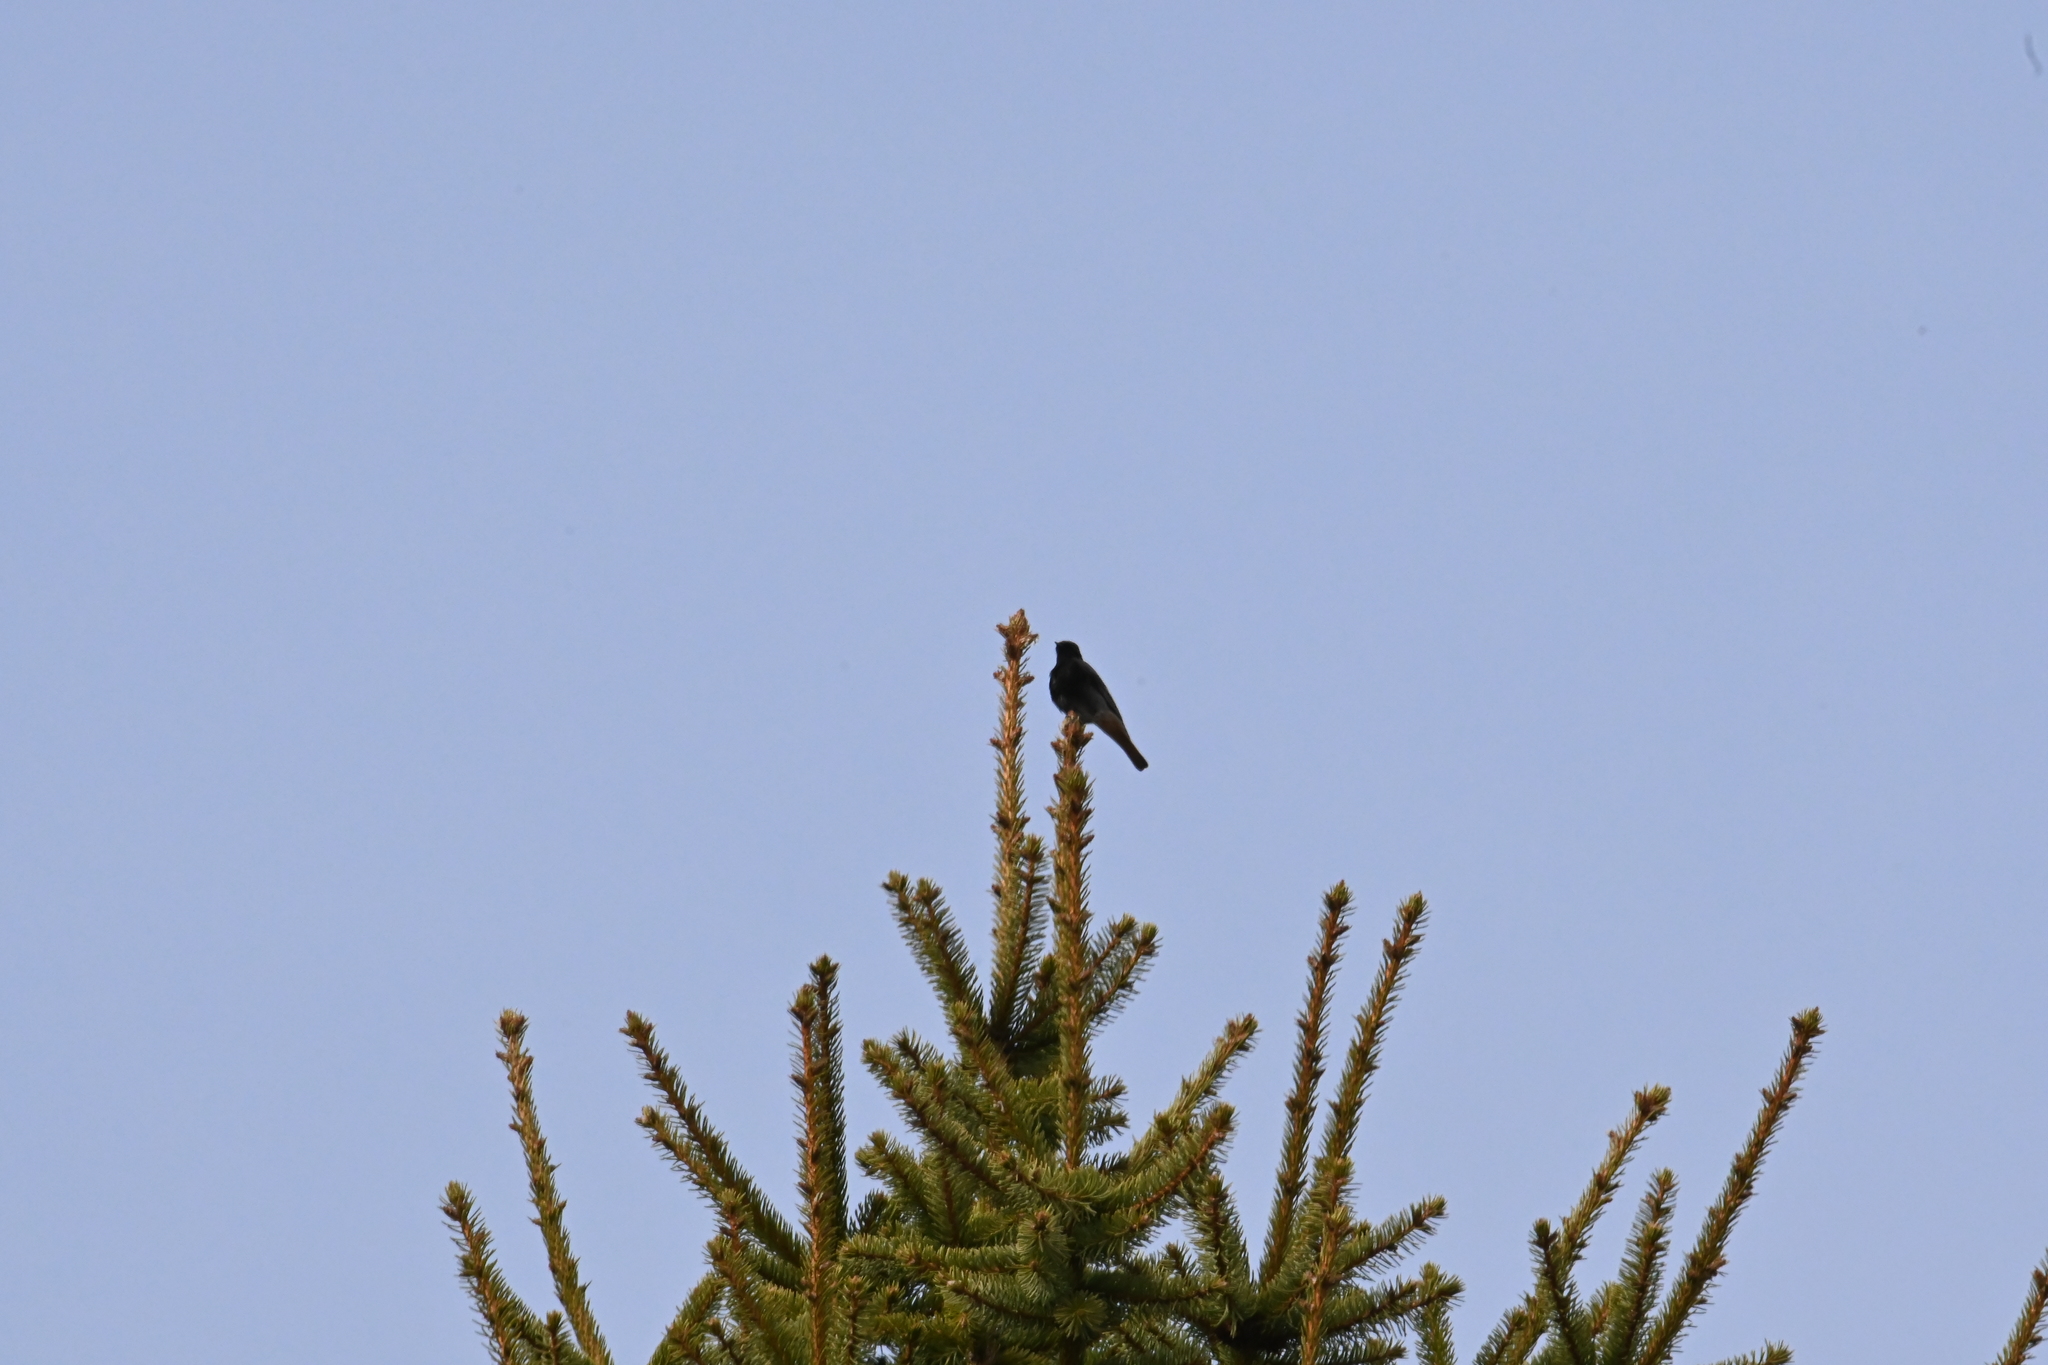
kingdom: Animalia
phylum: Chordata
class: Aves
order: Passeriformes
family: Muscicapidae
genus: Phoenicurus
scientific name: Phoenicurus ochruros
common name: Black redstart
